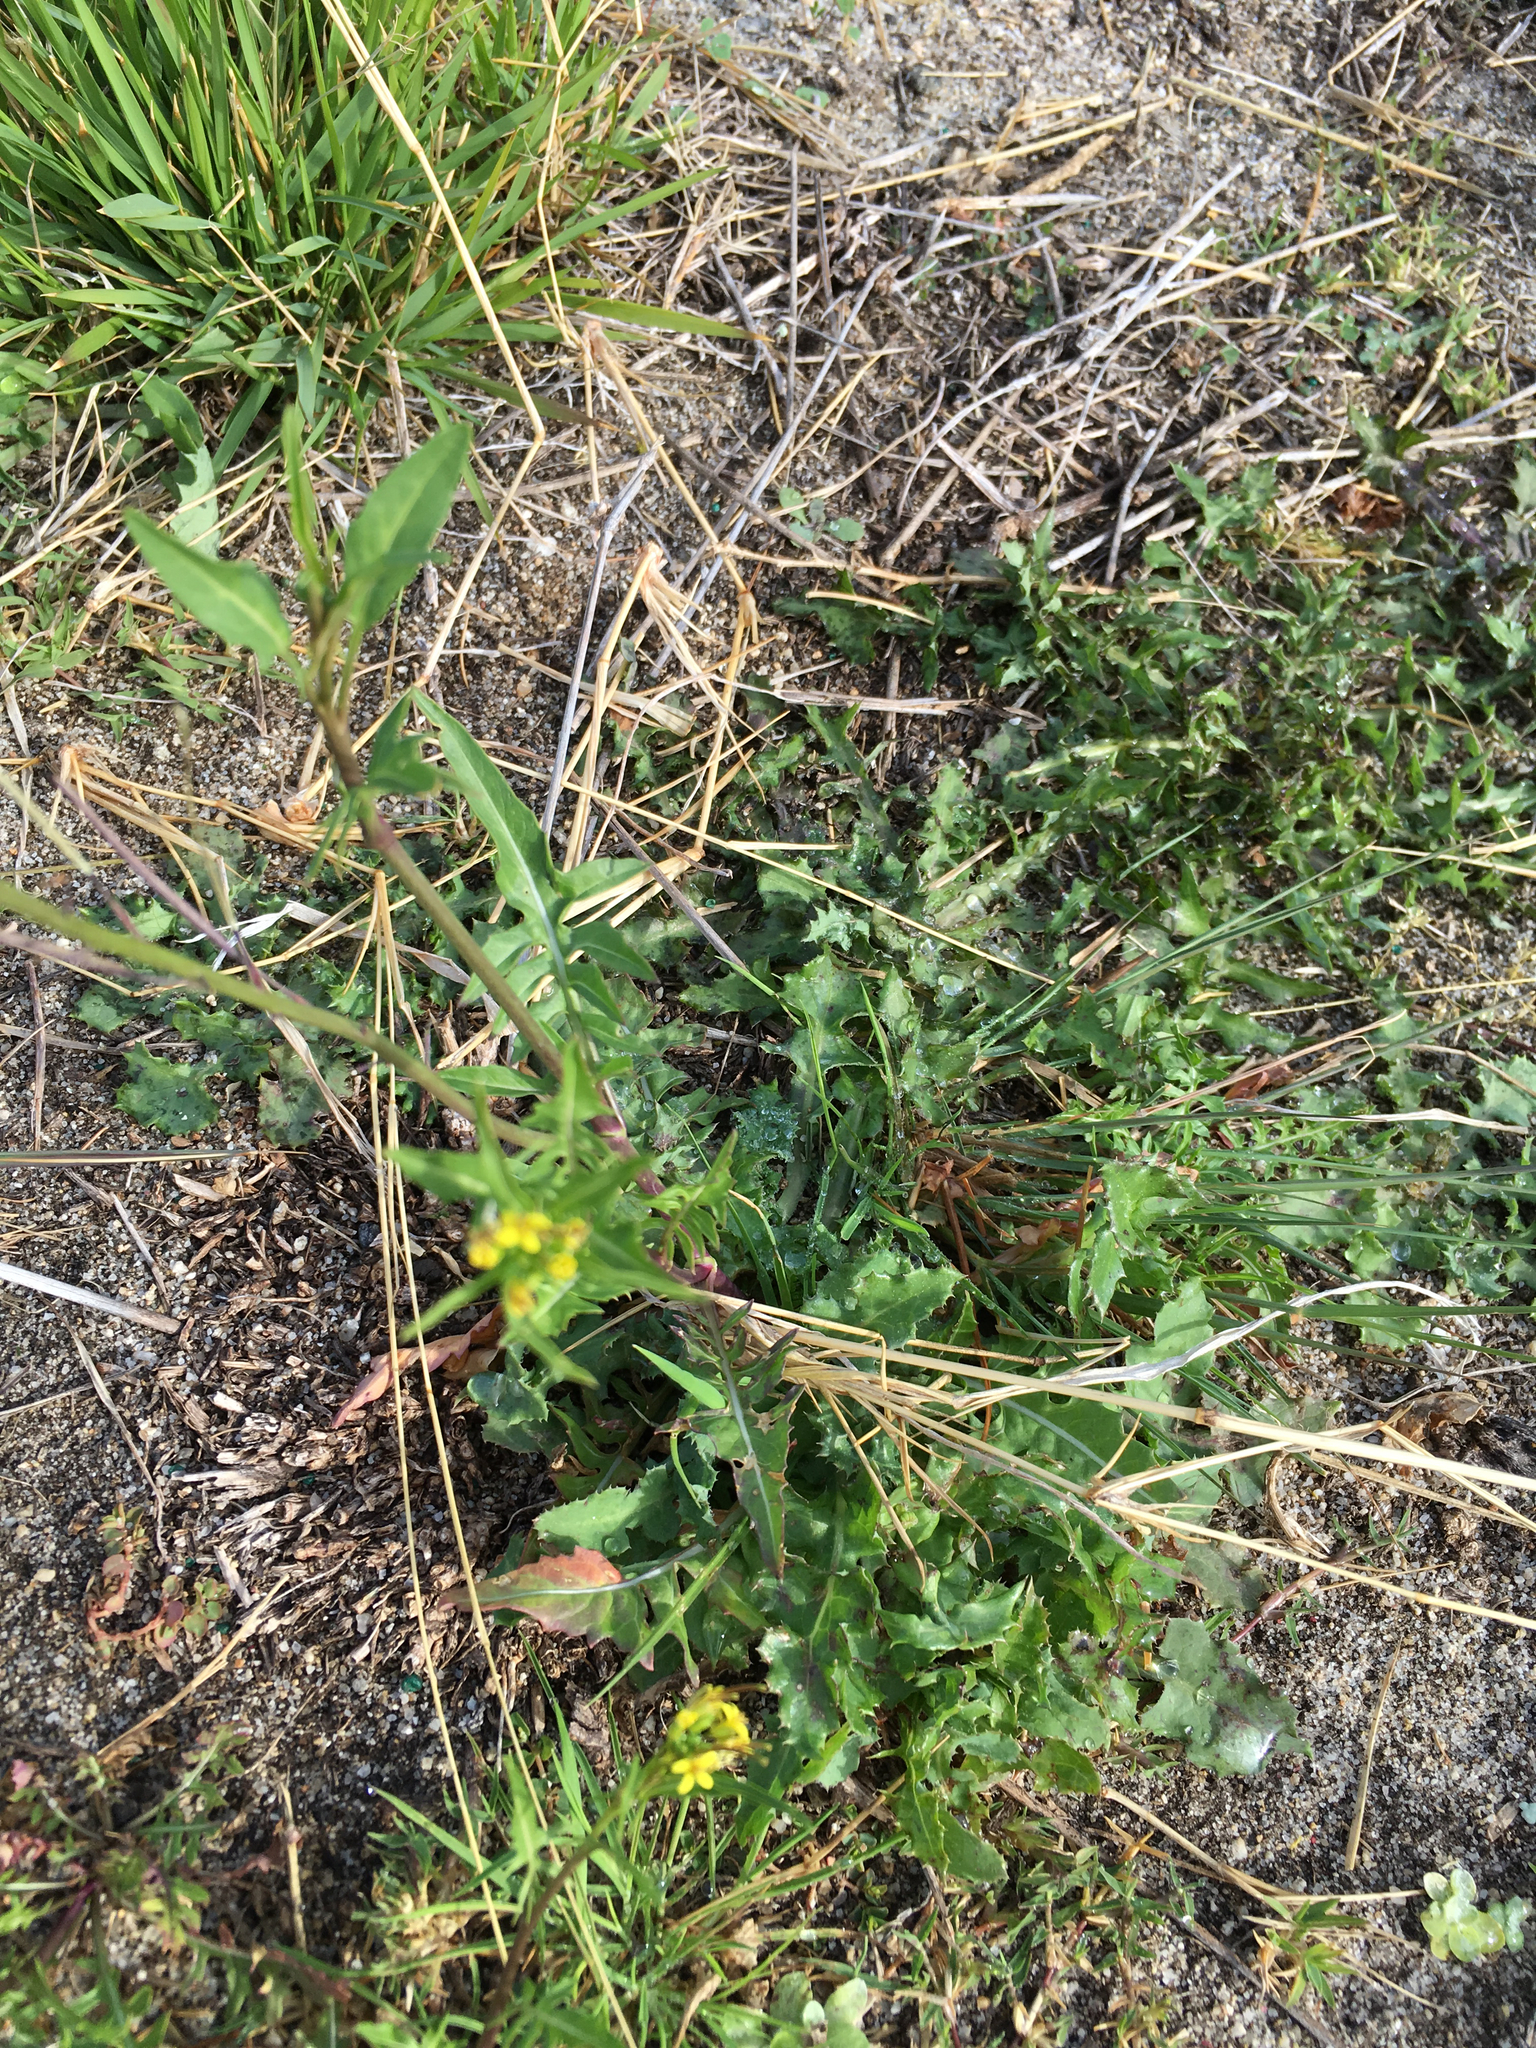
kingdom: Plantae
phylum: Tracheophyta
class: Magnoliopsida
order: Brassicales
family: Brassicaceae
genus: Sisymbrium
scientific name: Sisymbrium irio
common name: London rocket
